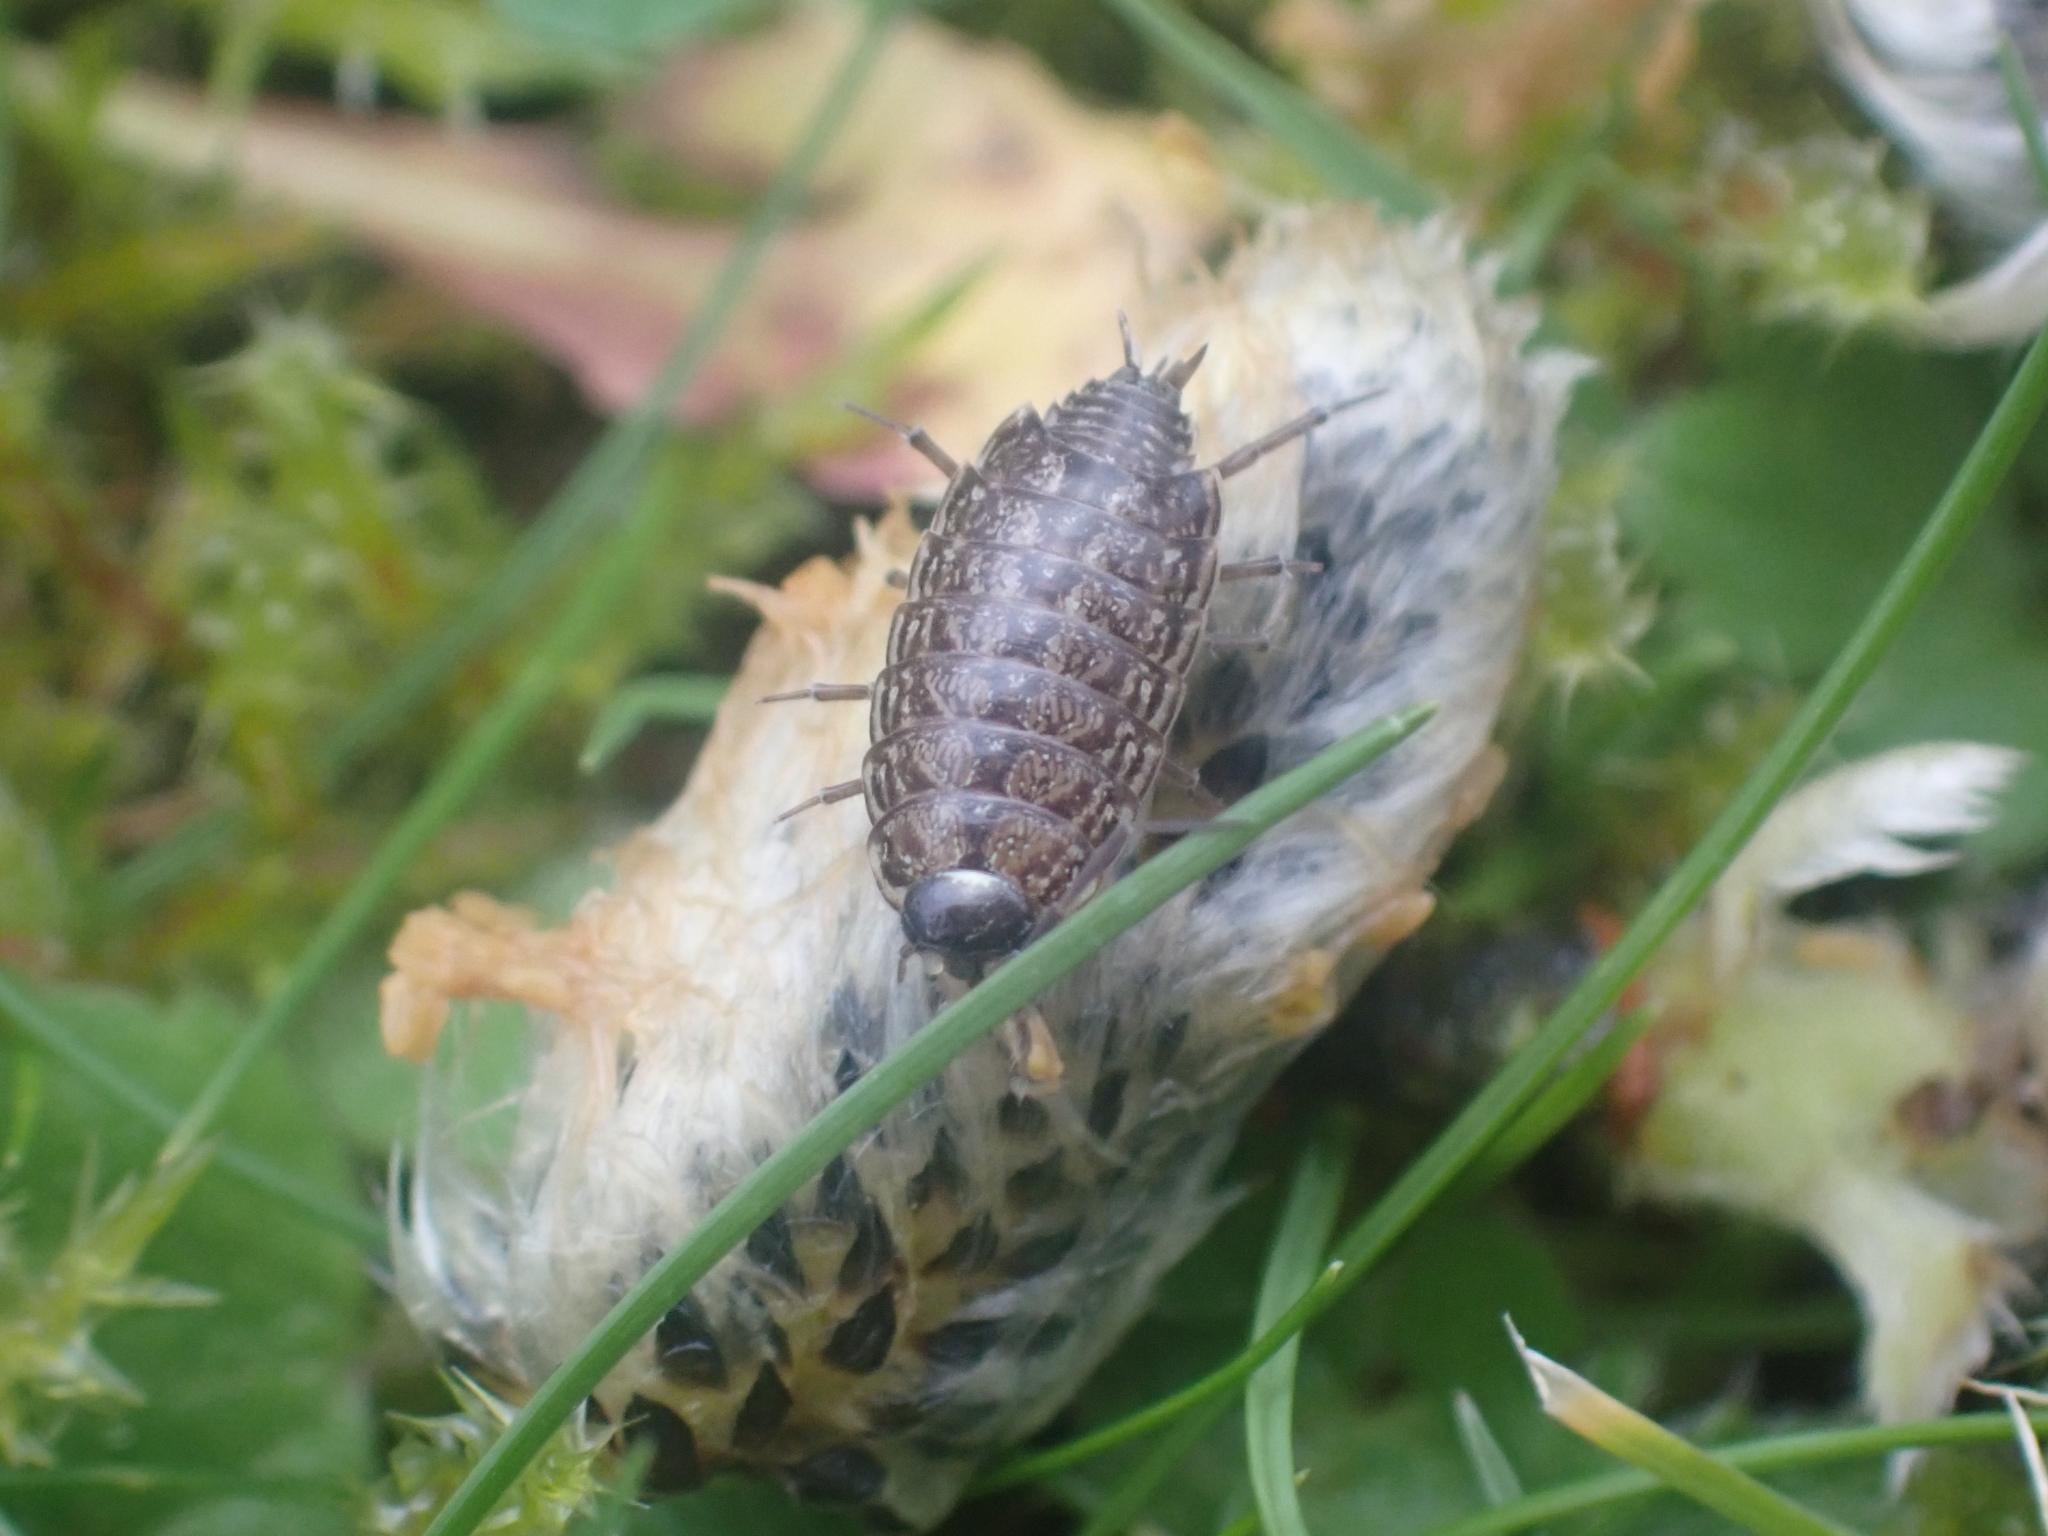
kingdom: Animalia
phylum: Arthropoda
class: Malacostraca
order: Isopoda
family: Philosciidae
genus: Philoscia
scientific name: Philoscia muscorum
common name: Common striped woodlouse
